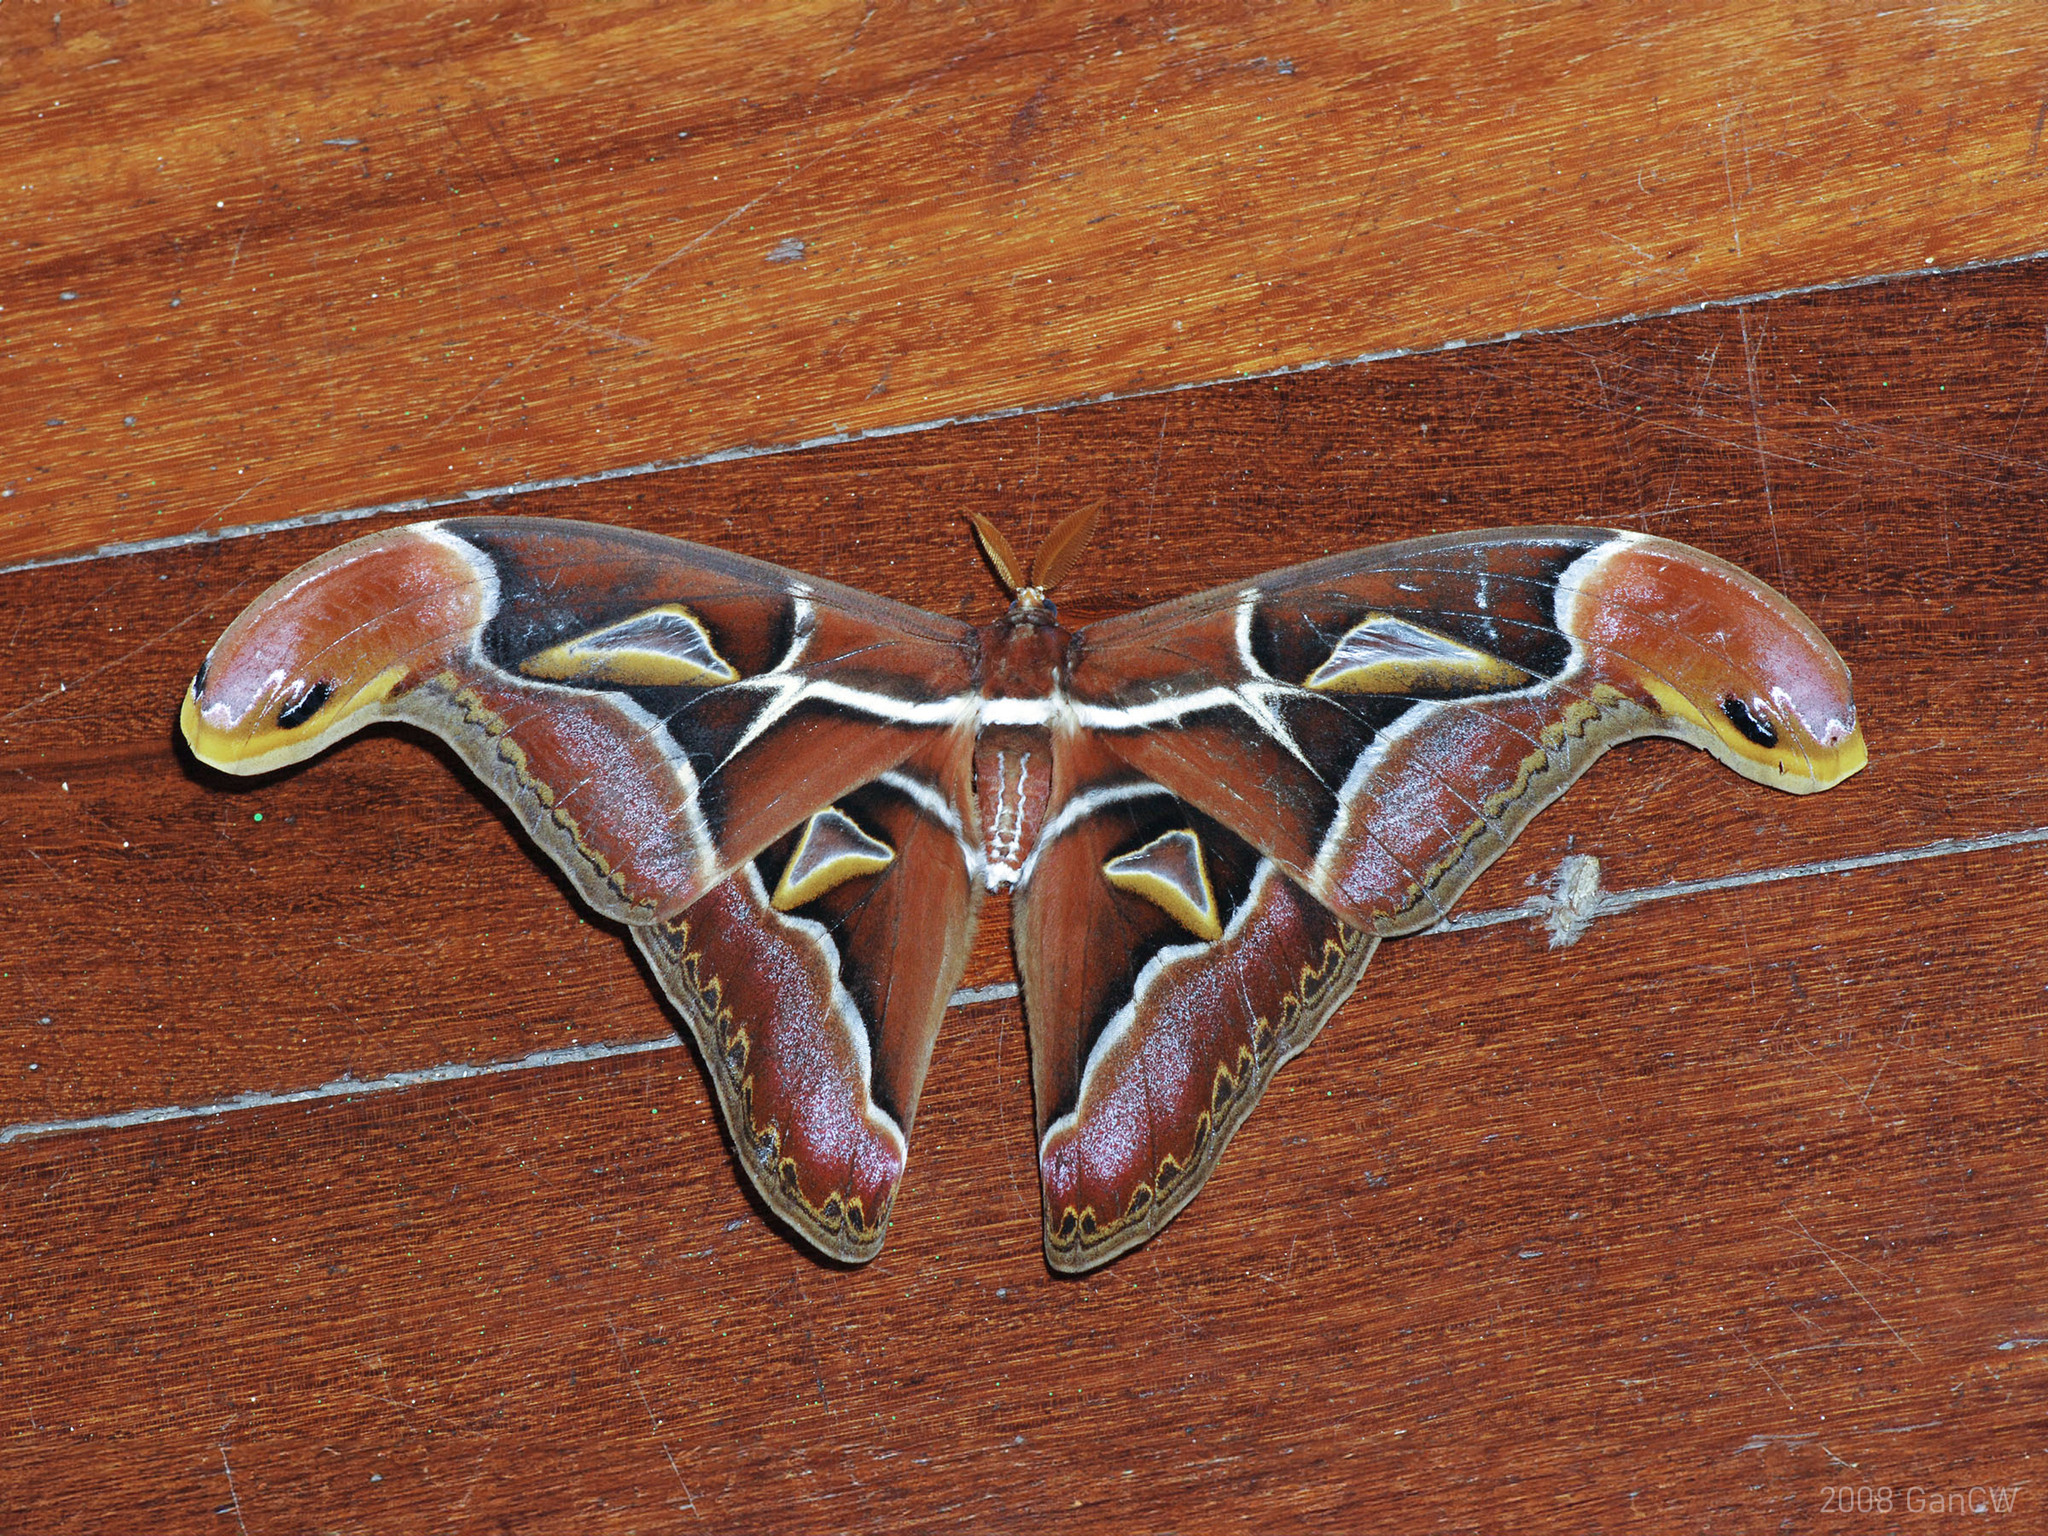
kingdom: Animalia
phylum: Arthropoda
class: Insecta
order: Lepidoptera
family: Saturniidae
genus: Archaeoattacus
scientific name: Archaeoattacus edwardsii
